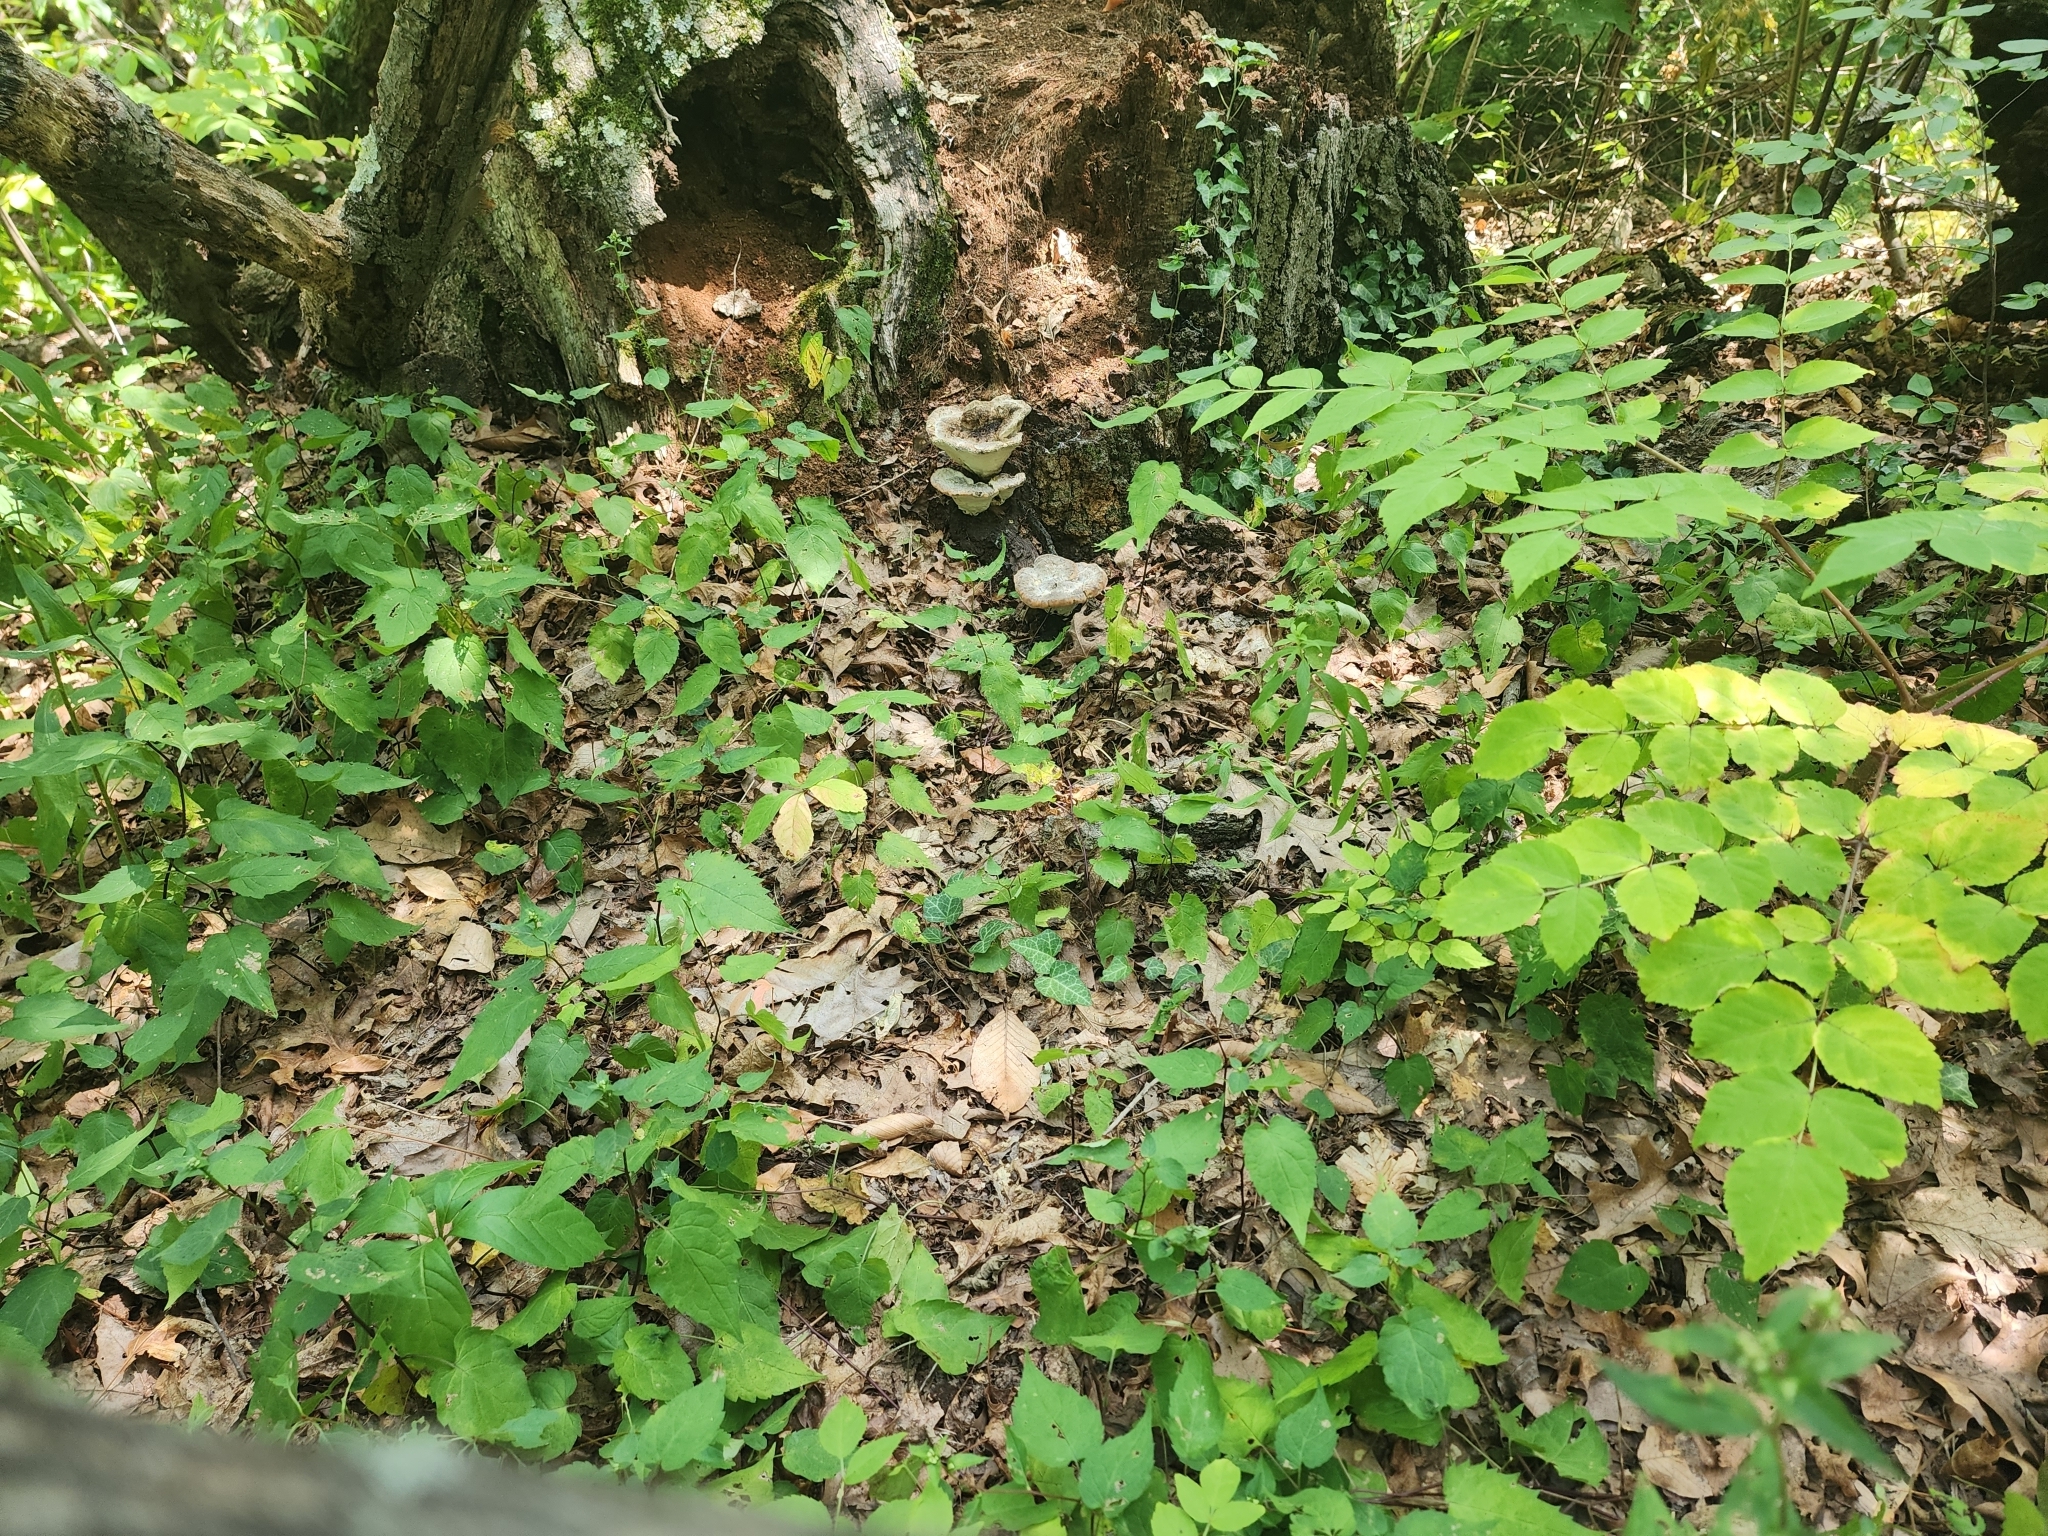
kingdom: Fungi
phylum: Basidiomycota
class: Agaricomycetes
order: Polyporales
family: Fomitopsidaceae
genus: Niveoporofomes
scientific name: Niveoporofomes spraguei
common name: Green cheese polypore
